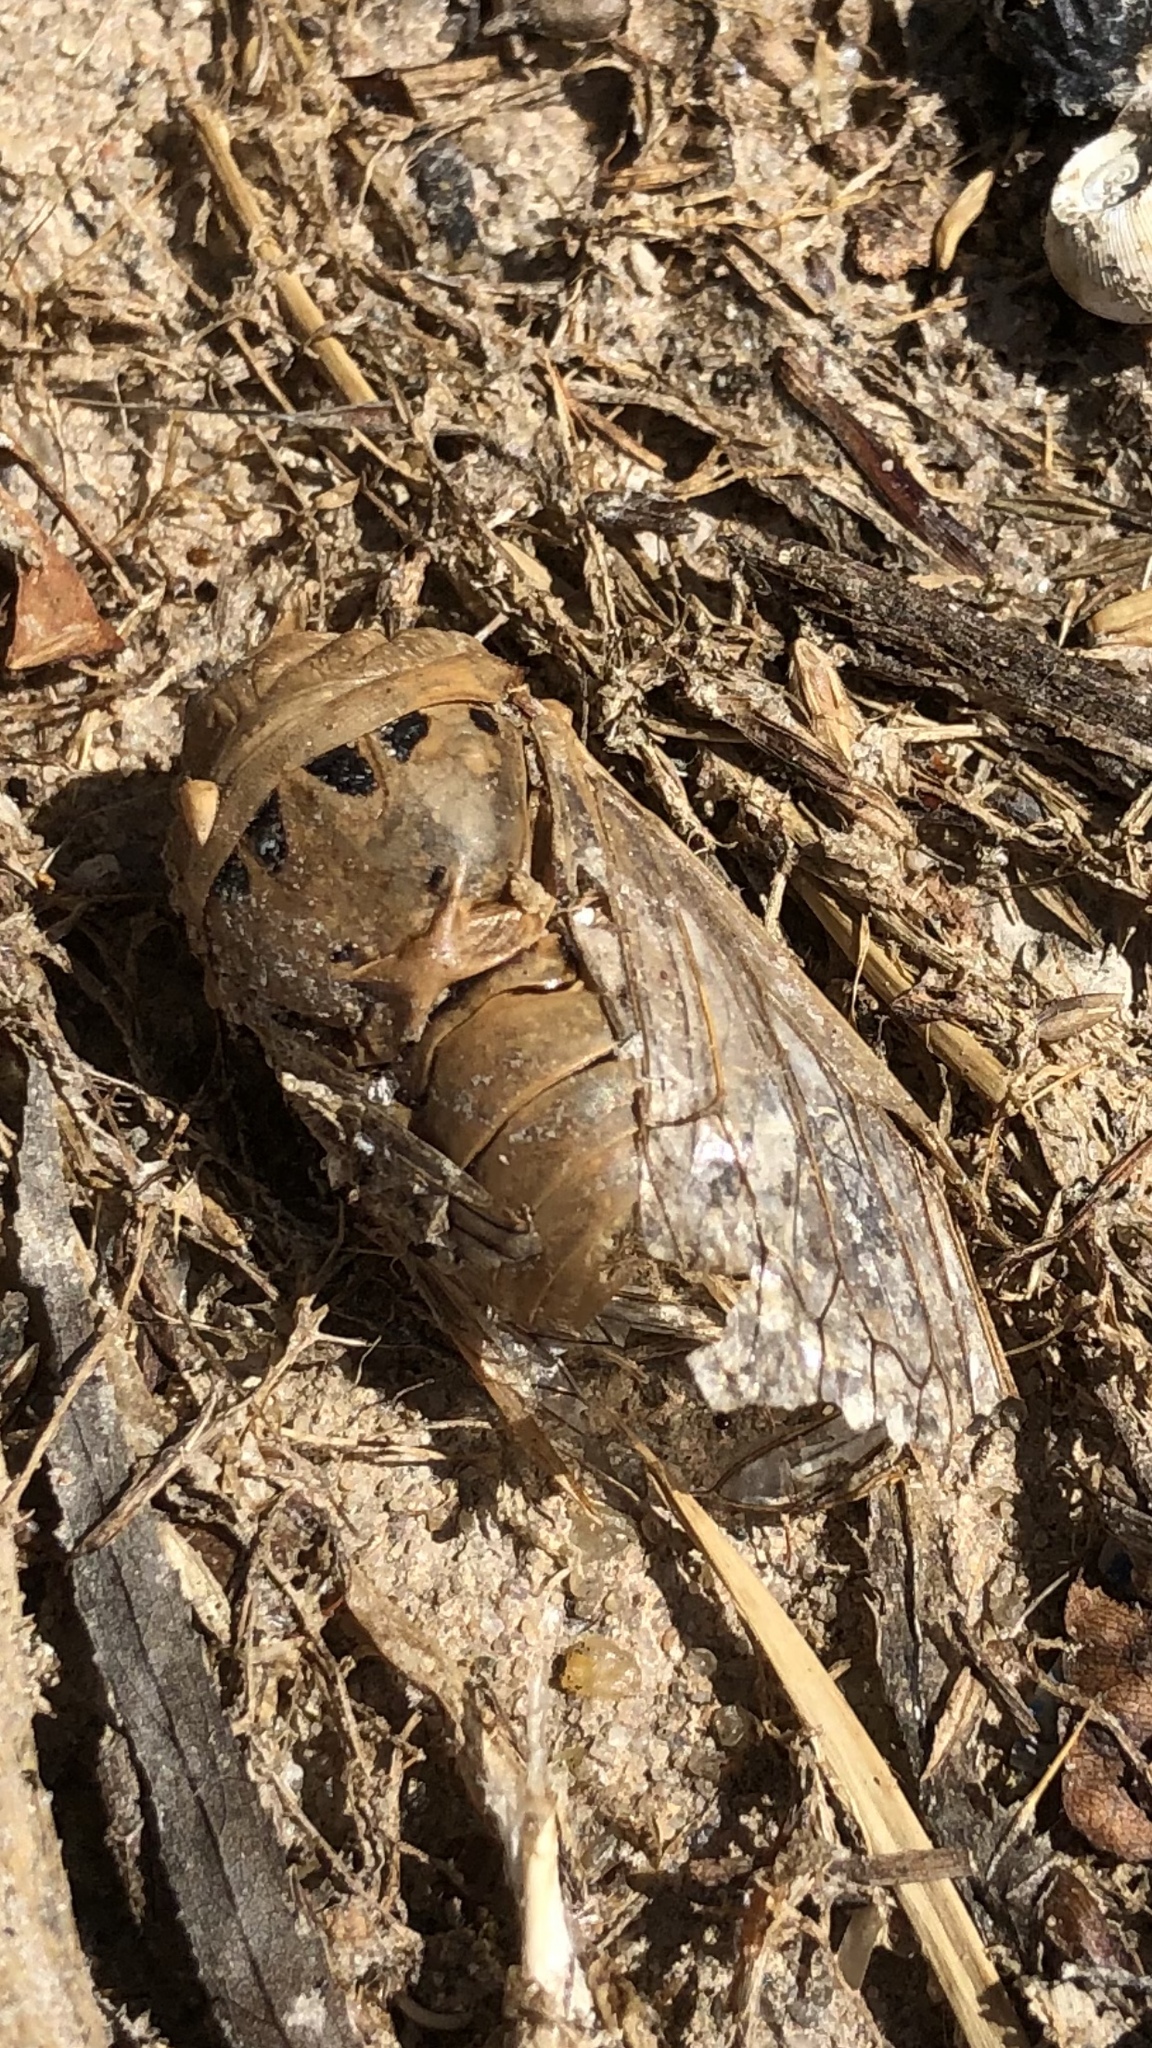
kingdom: Animalia
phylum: Arthropoda
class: Insecta
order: Hemiptera
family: Cicadidae
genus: Neotibicen
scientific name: Neotibicen superbus
